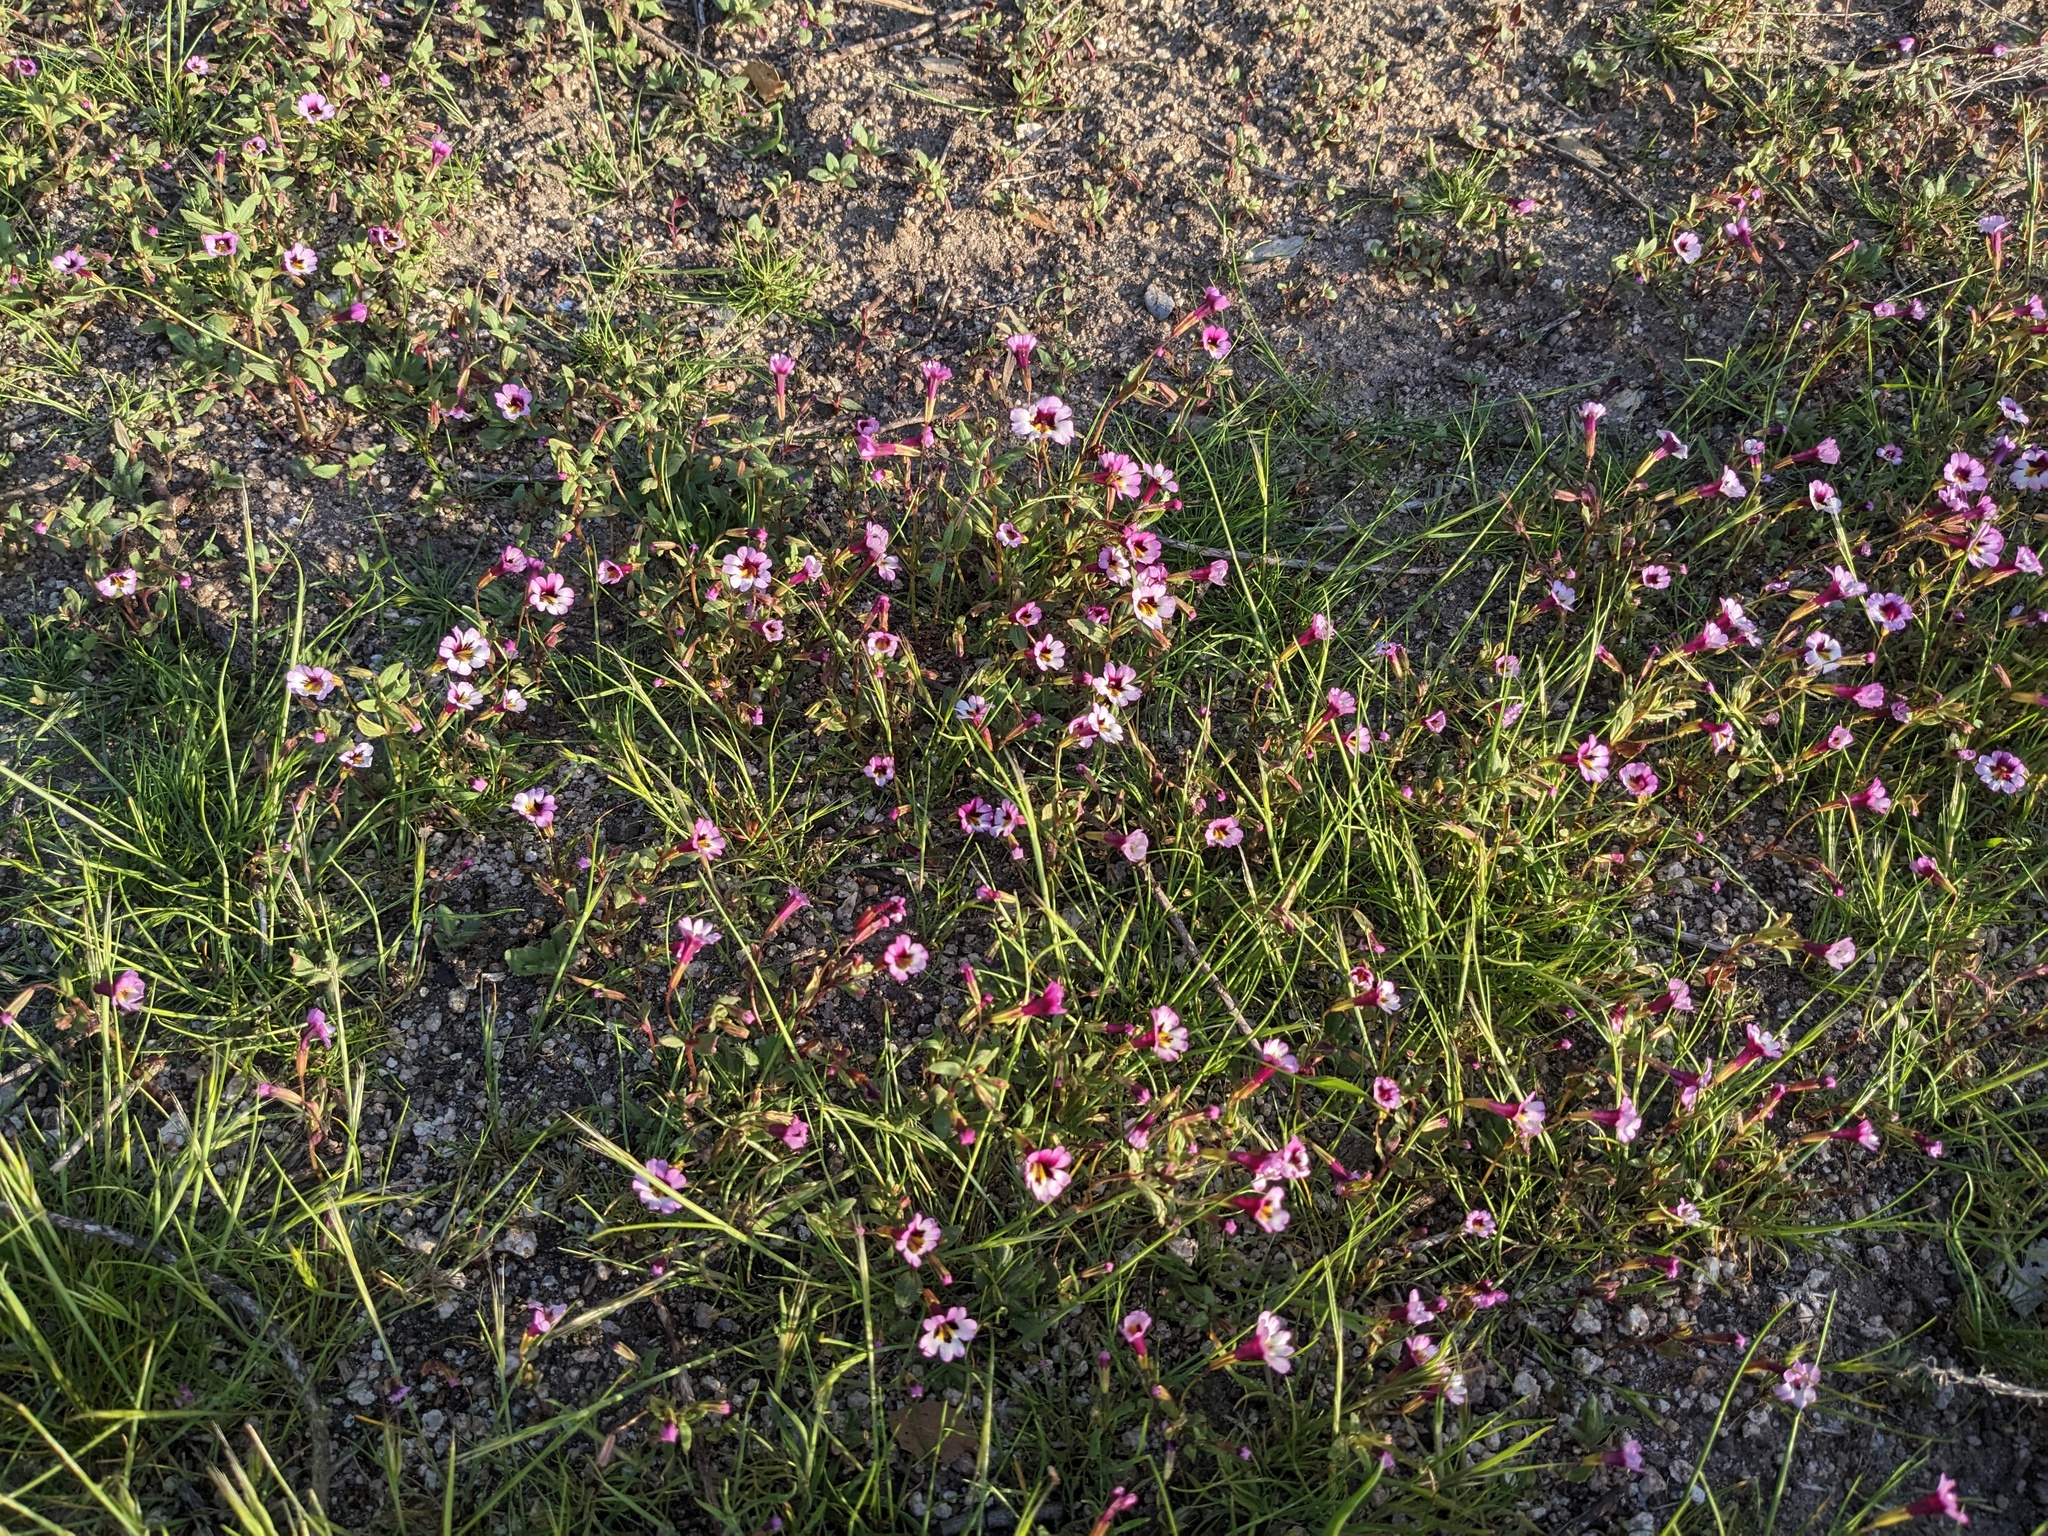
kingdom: Plantae
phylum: Tracheophyta
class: Magnoliopsida
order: Lamiales
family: Phrymaceae
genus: Erythranthe
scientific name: Erythranthe sierrae
